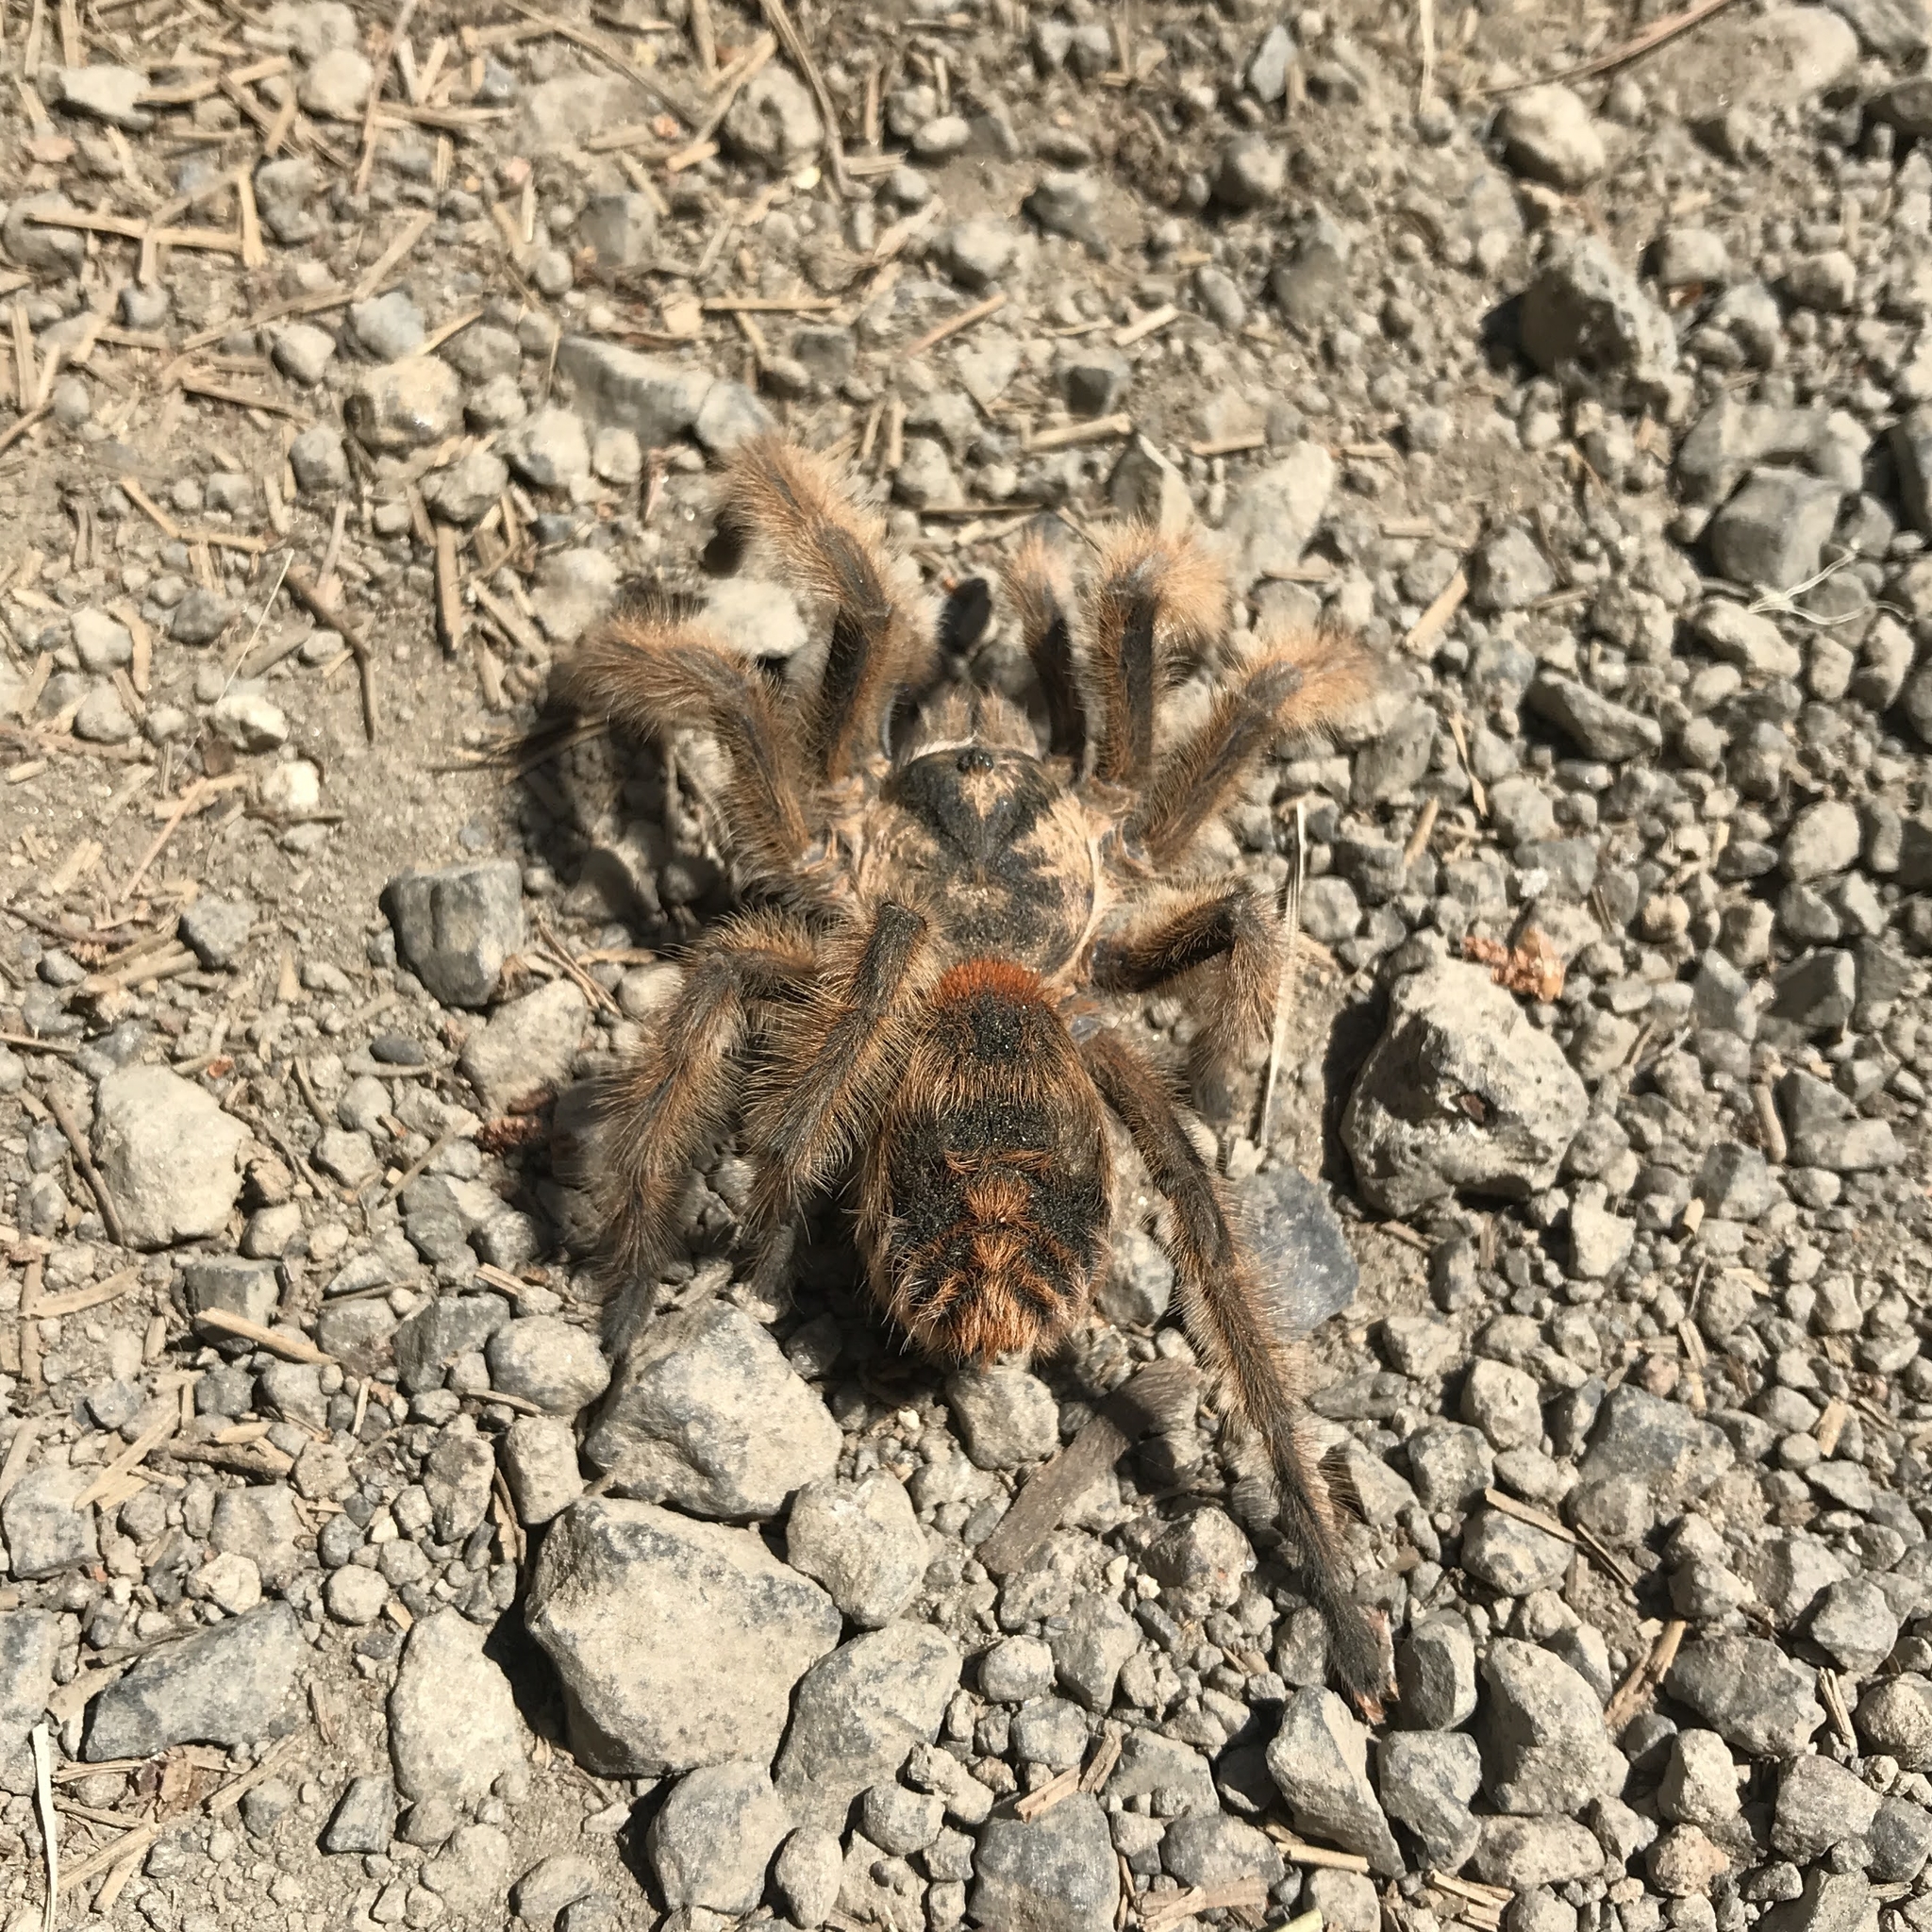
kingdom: Animalia
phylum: Arthropoda
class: Arachnida
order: Araneae
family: Theraphosidae
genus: Phrixotrichus
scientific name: Phrixotrichus vulpinus
